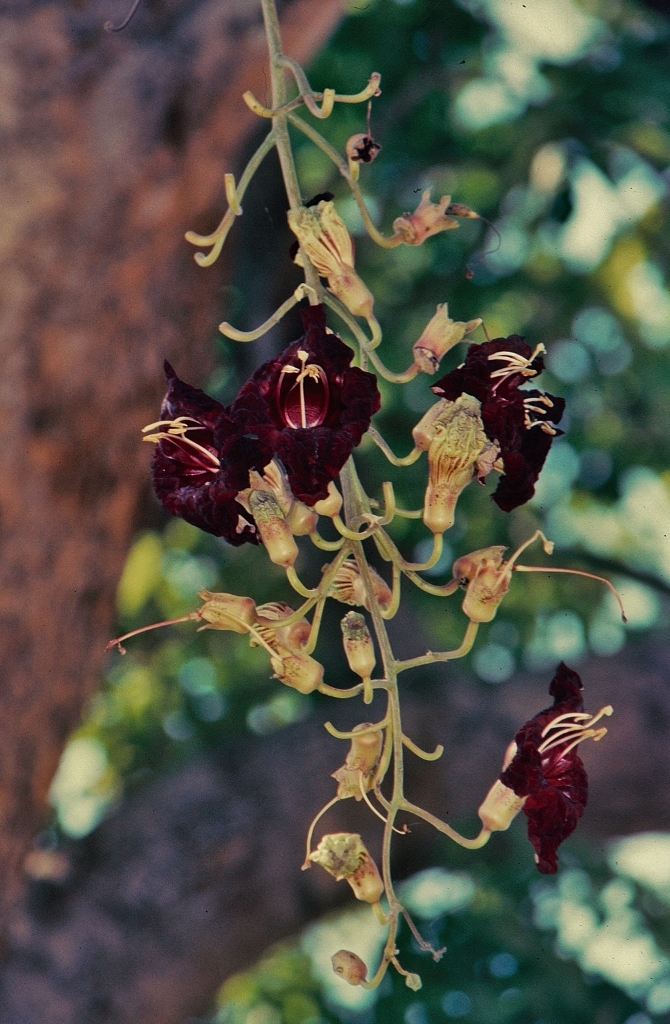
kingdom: Plantae
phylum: Tracheophyta
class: Magnoliopsida
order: Lamiales
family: Bignoniaceae
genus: Kigelia
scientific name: Kigelia africana
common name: Sausage tree
